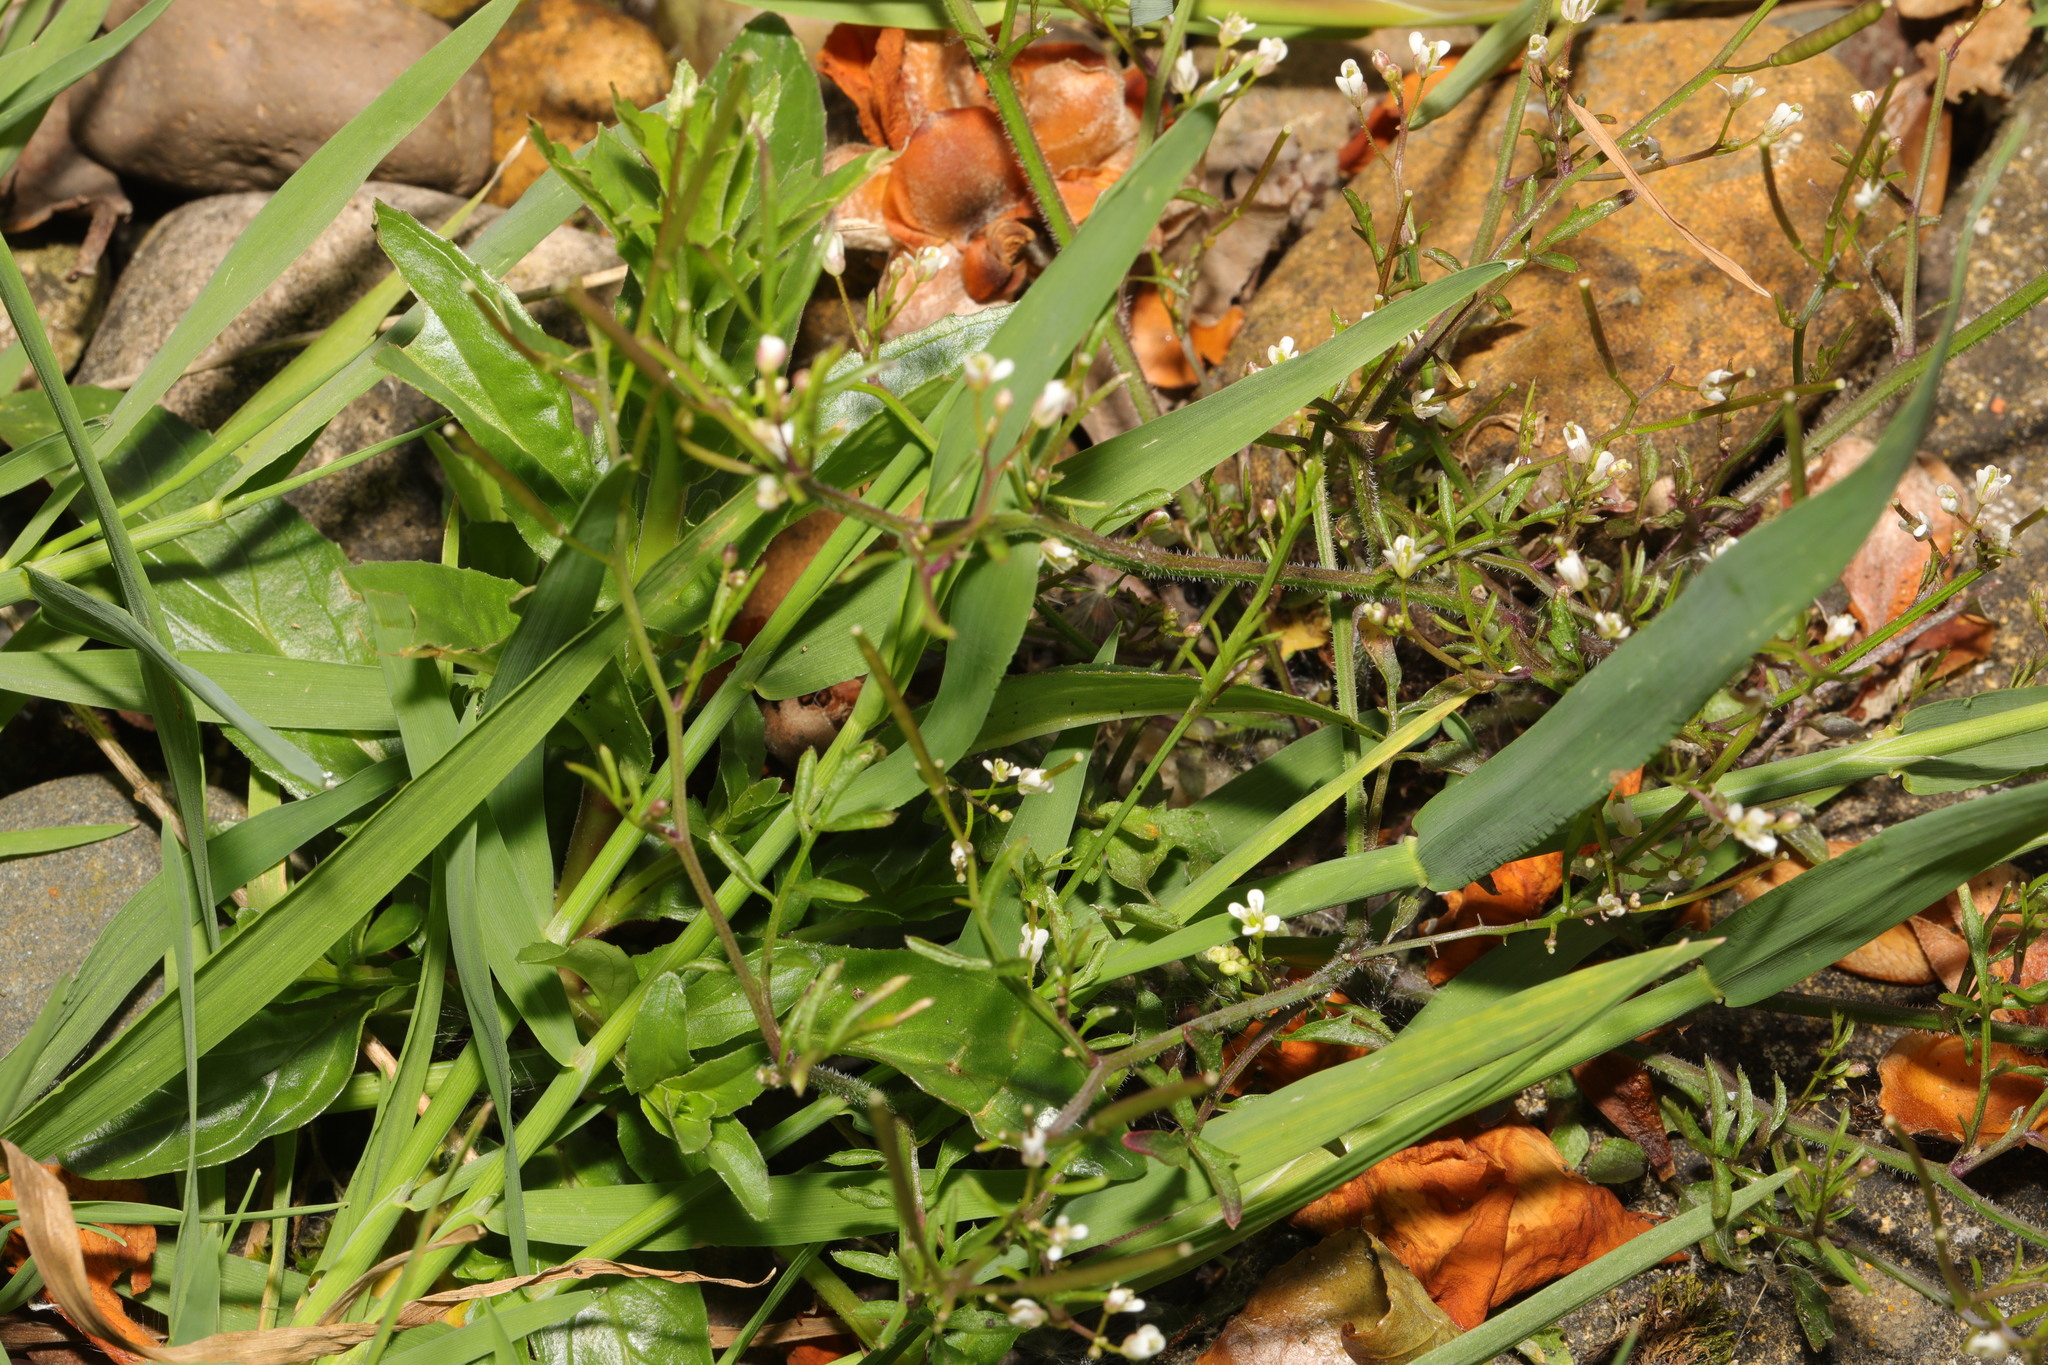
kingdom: Plantae
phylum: Tracheophyta
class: Magnoliopsida
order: Brassicales
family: Brassicaceae
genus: Cardamine
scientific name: Cardamine flexuosa
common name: Woodland bittercress
